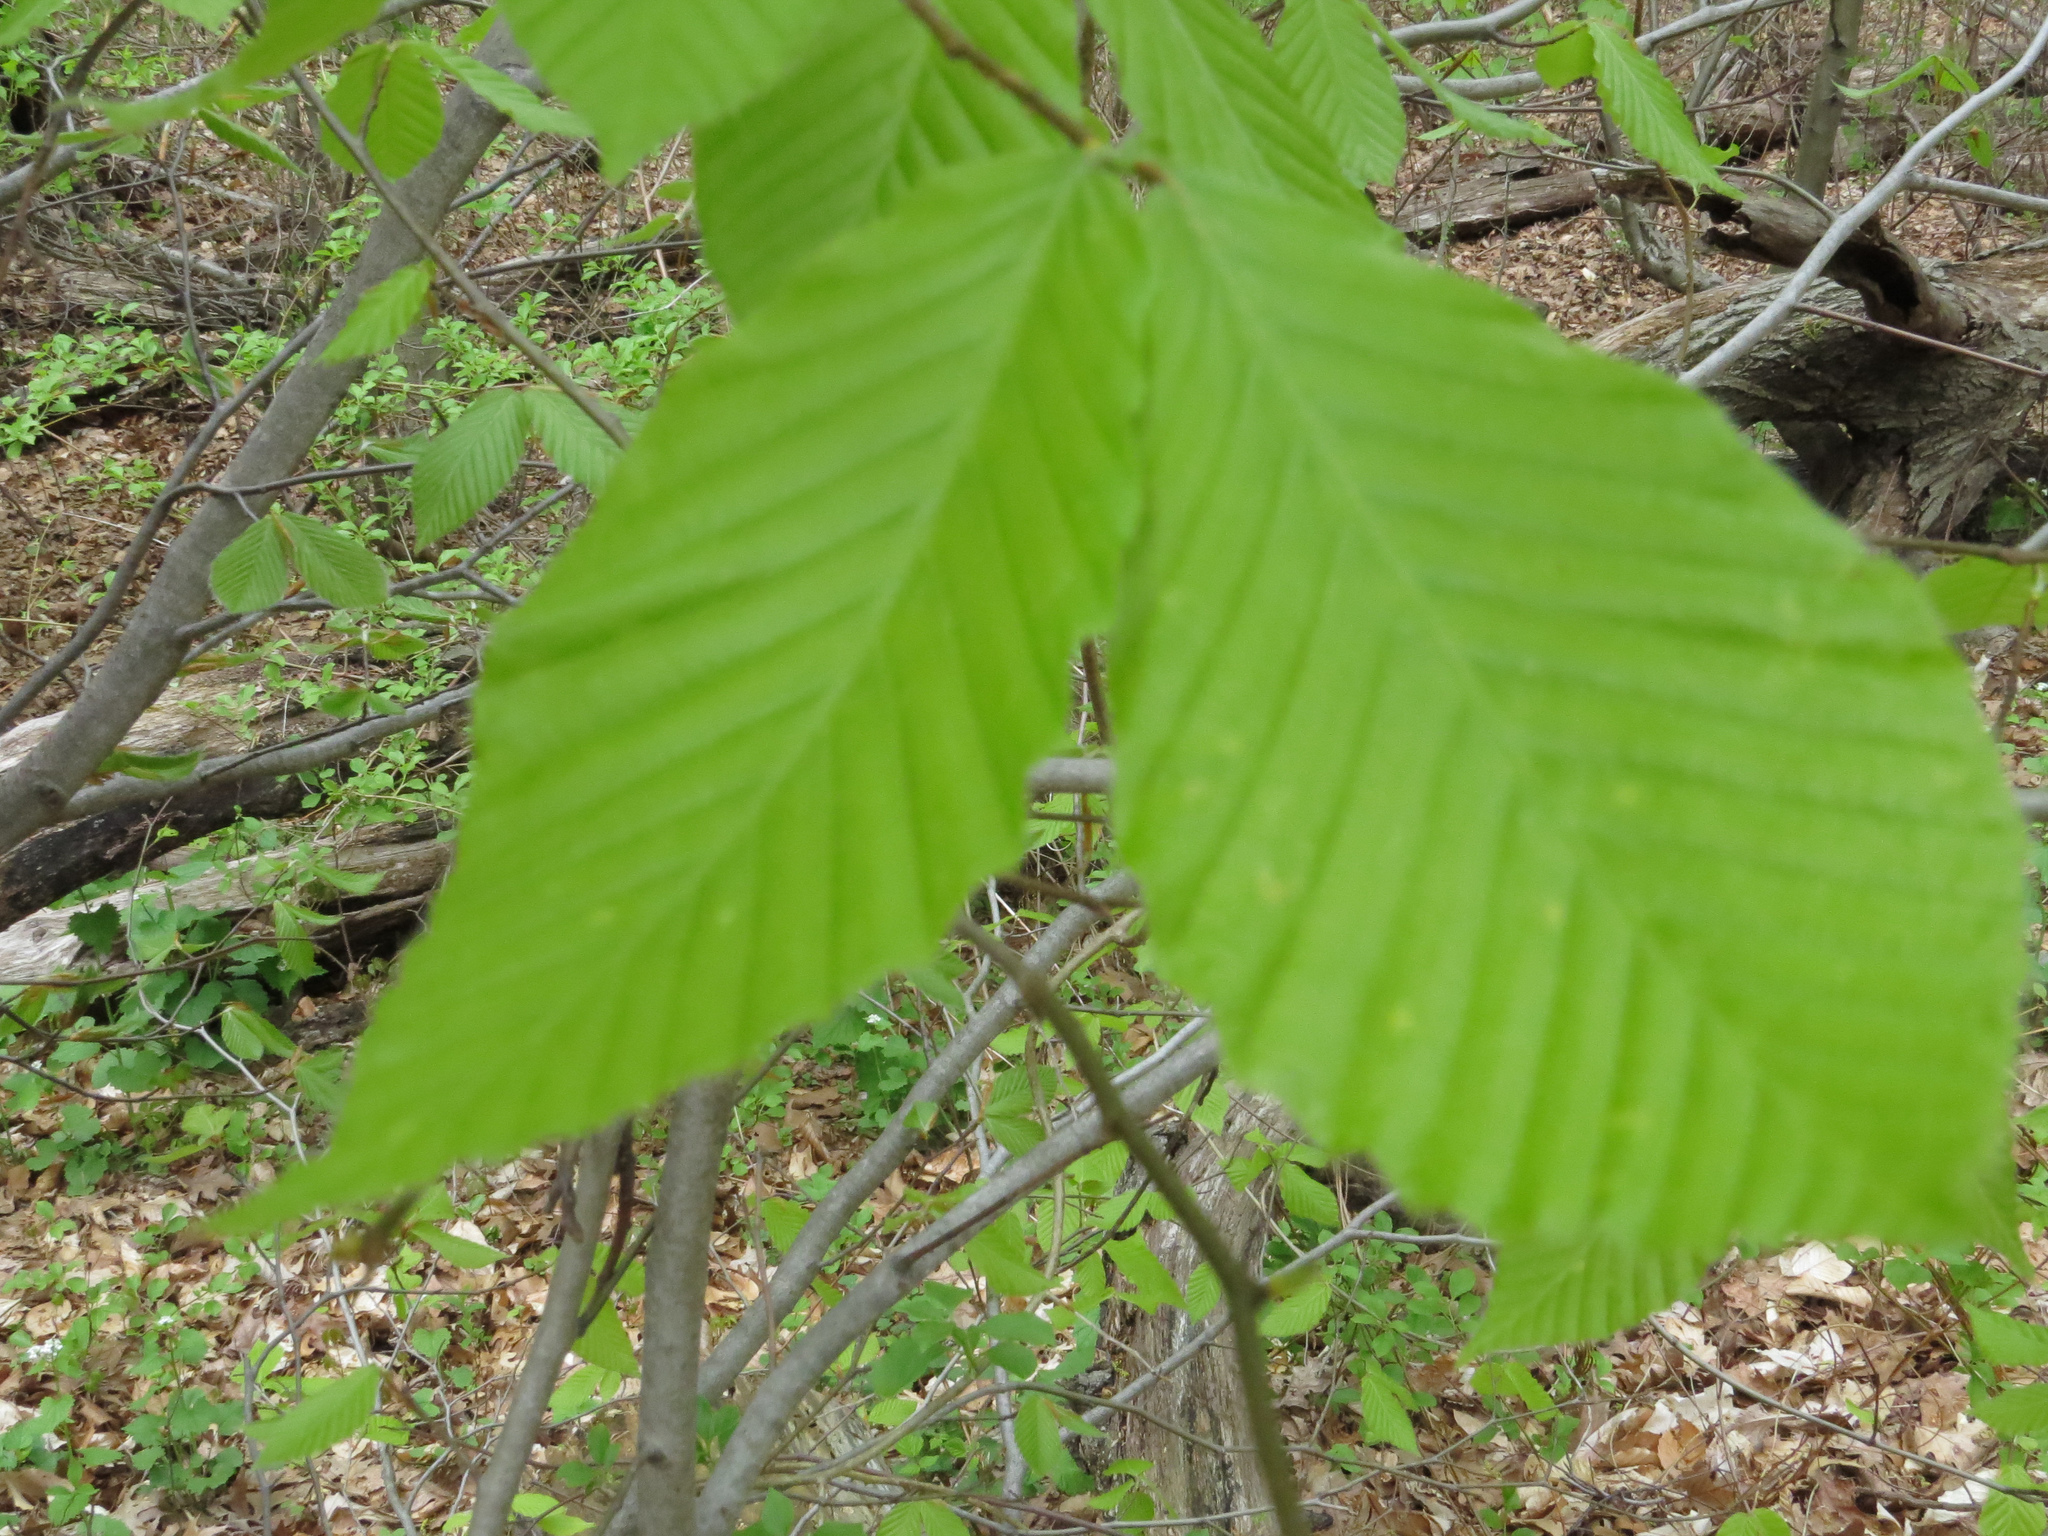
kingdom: Plantae
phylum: Tracheophyta
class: Magnoliopsida
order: Fagales
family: Fagaceae
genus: Fagus
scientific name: Fagus grandifolia
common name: American beech
